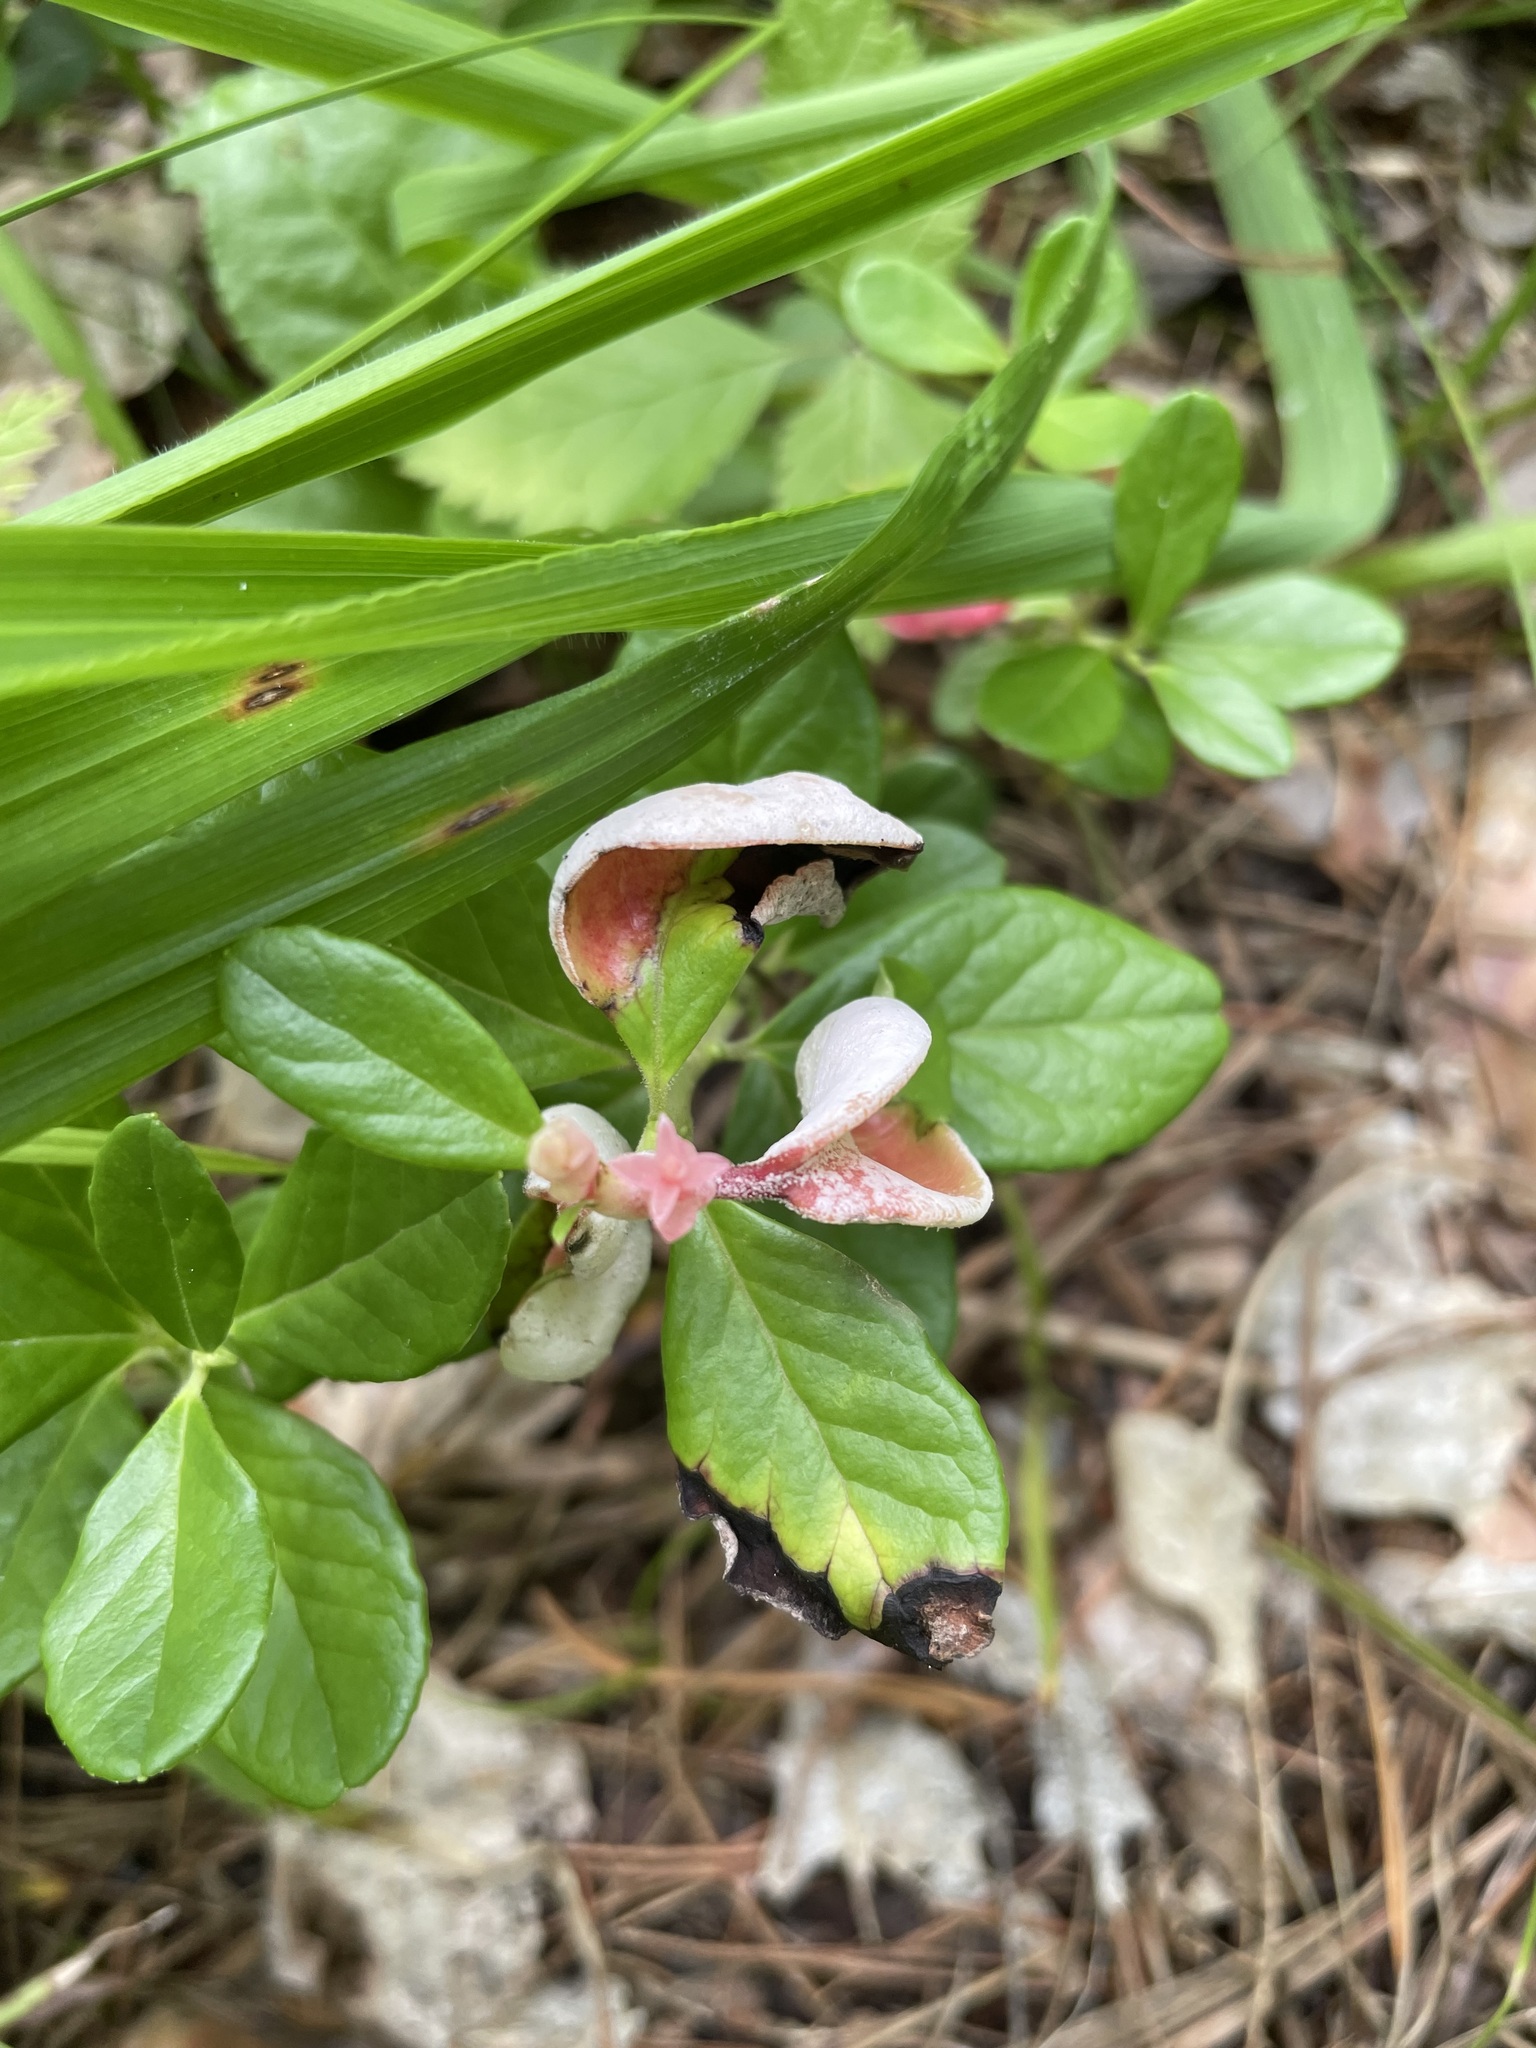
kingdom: Fungi
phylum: Basidiomycota
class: Exobasidiomycetes
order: Exobasidiales
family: Exobasidiaceae
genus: Exobasidium
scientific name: Exobasidium vaccinii
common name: Cowberry redleaf
